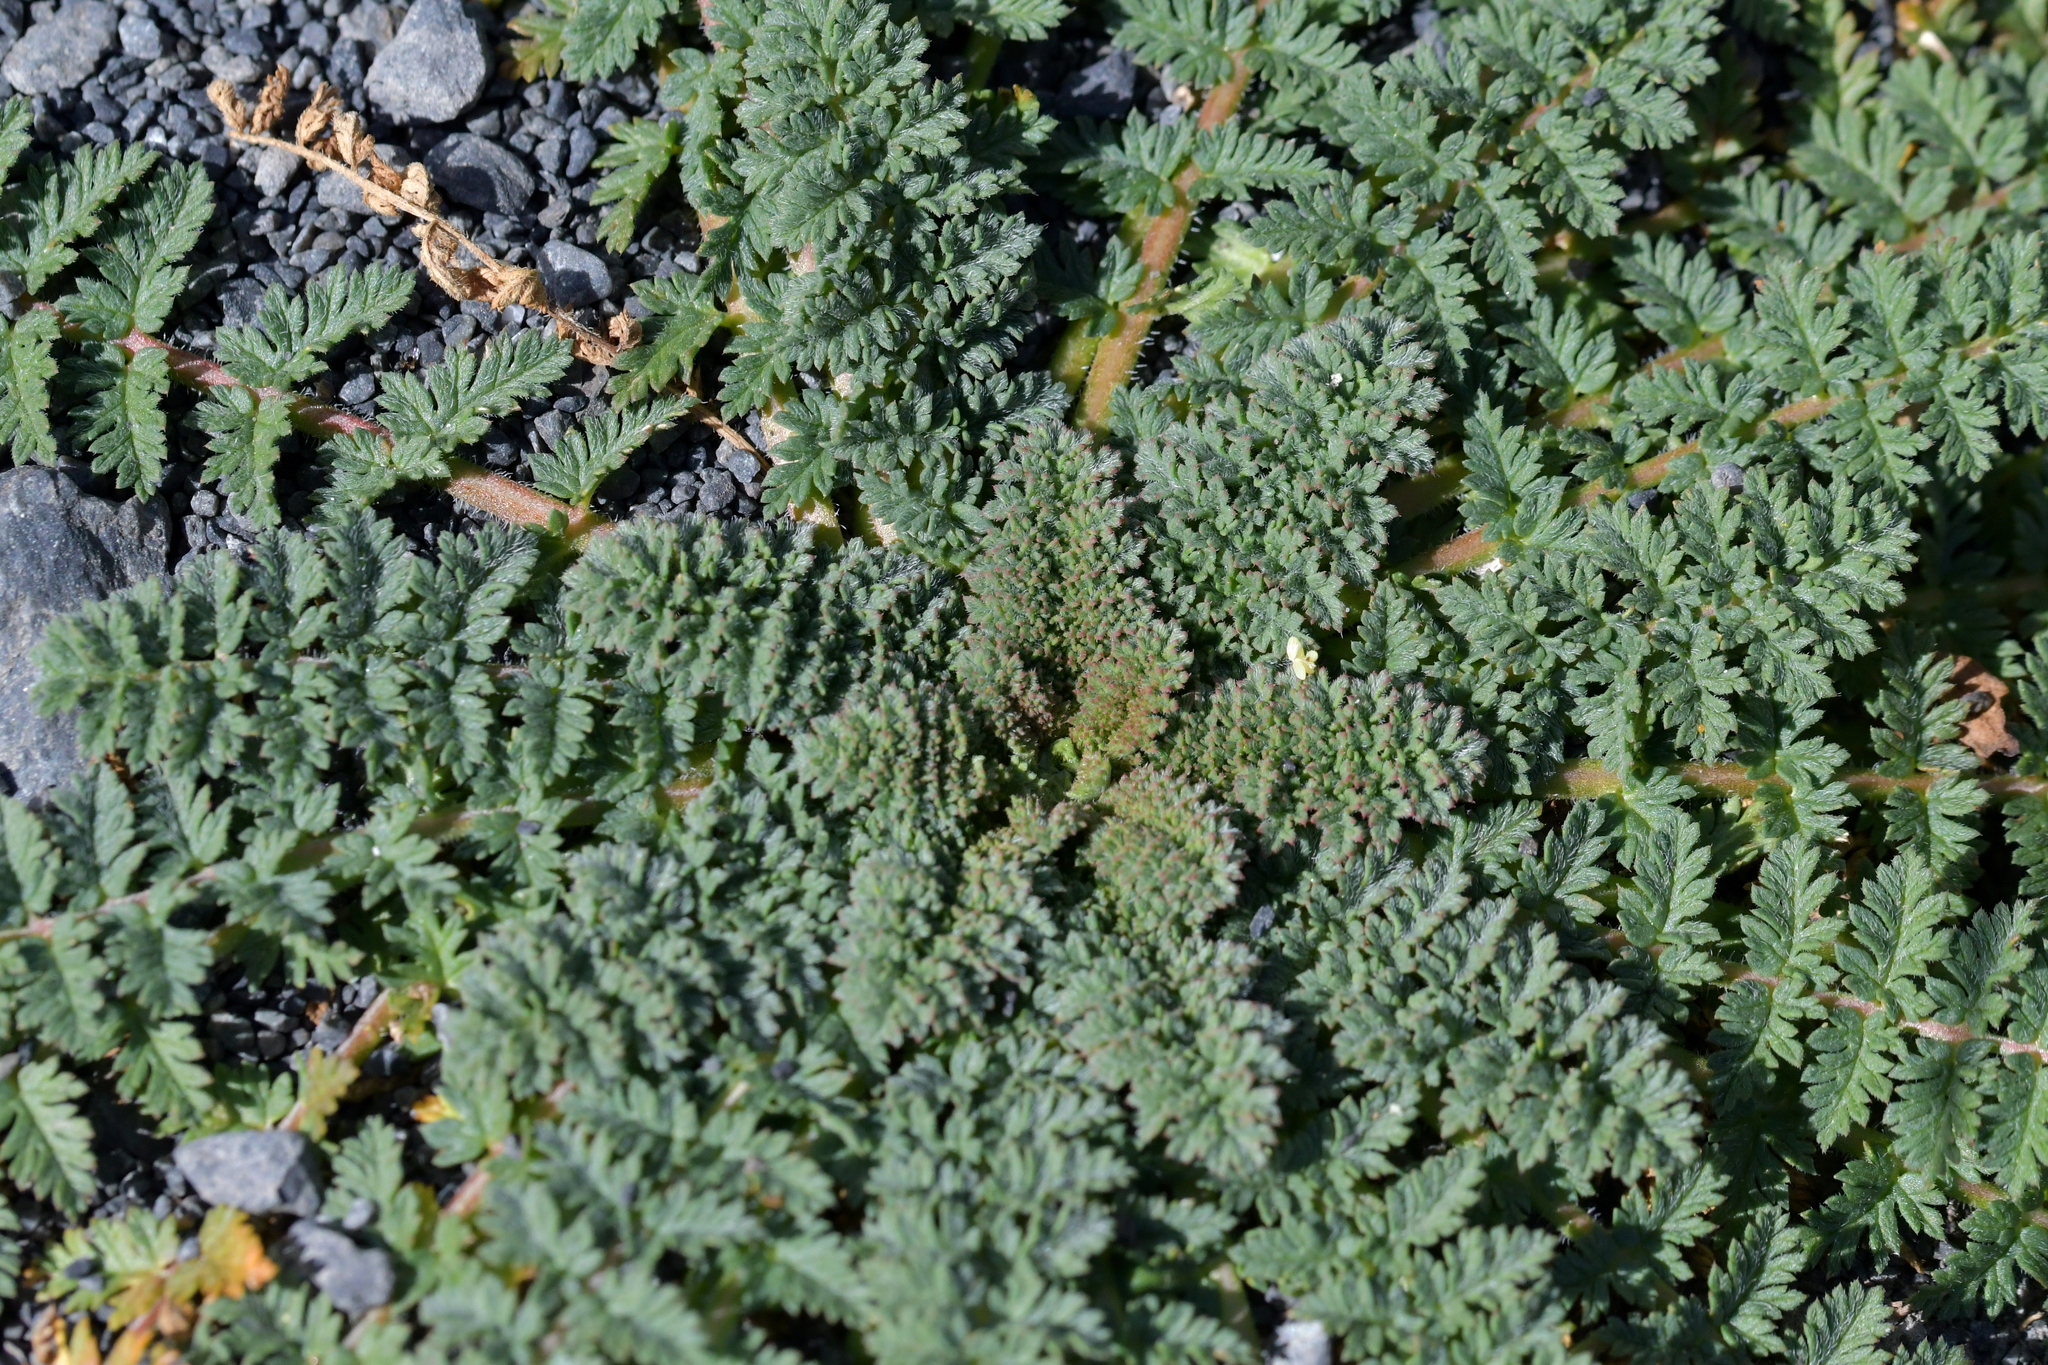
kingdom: Plantae
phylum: Tracheophyta
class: Magnoliopsida
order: Geraniales
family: Geraniaceae
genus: Erodium
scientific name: Erodium cicutarium
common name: Common stork's-bill
